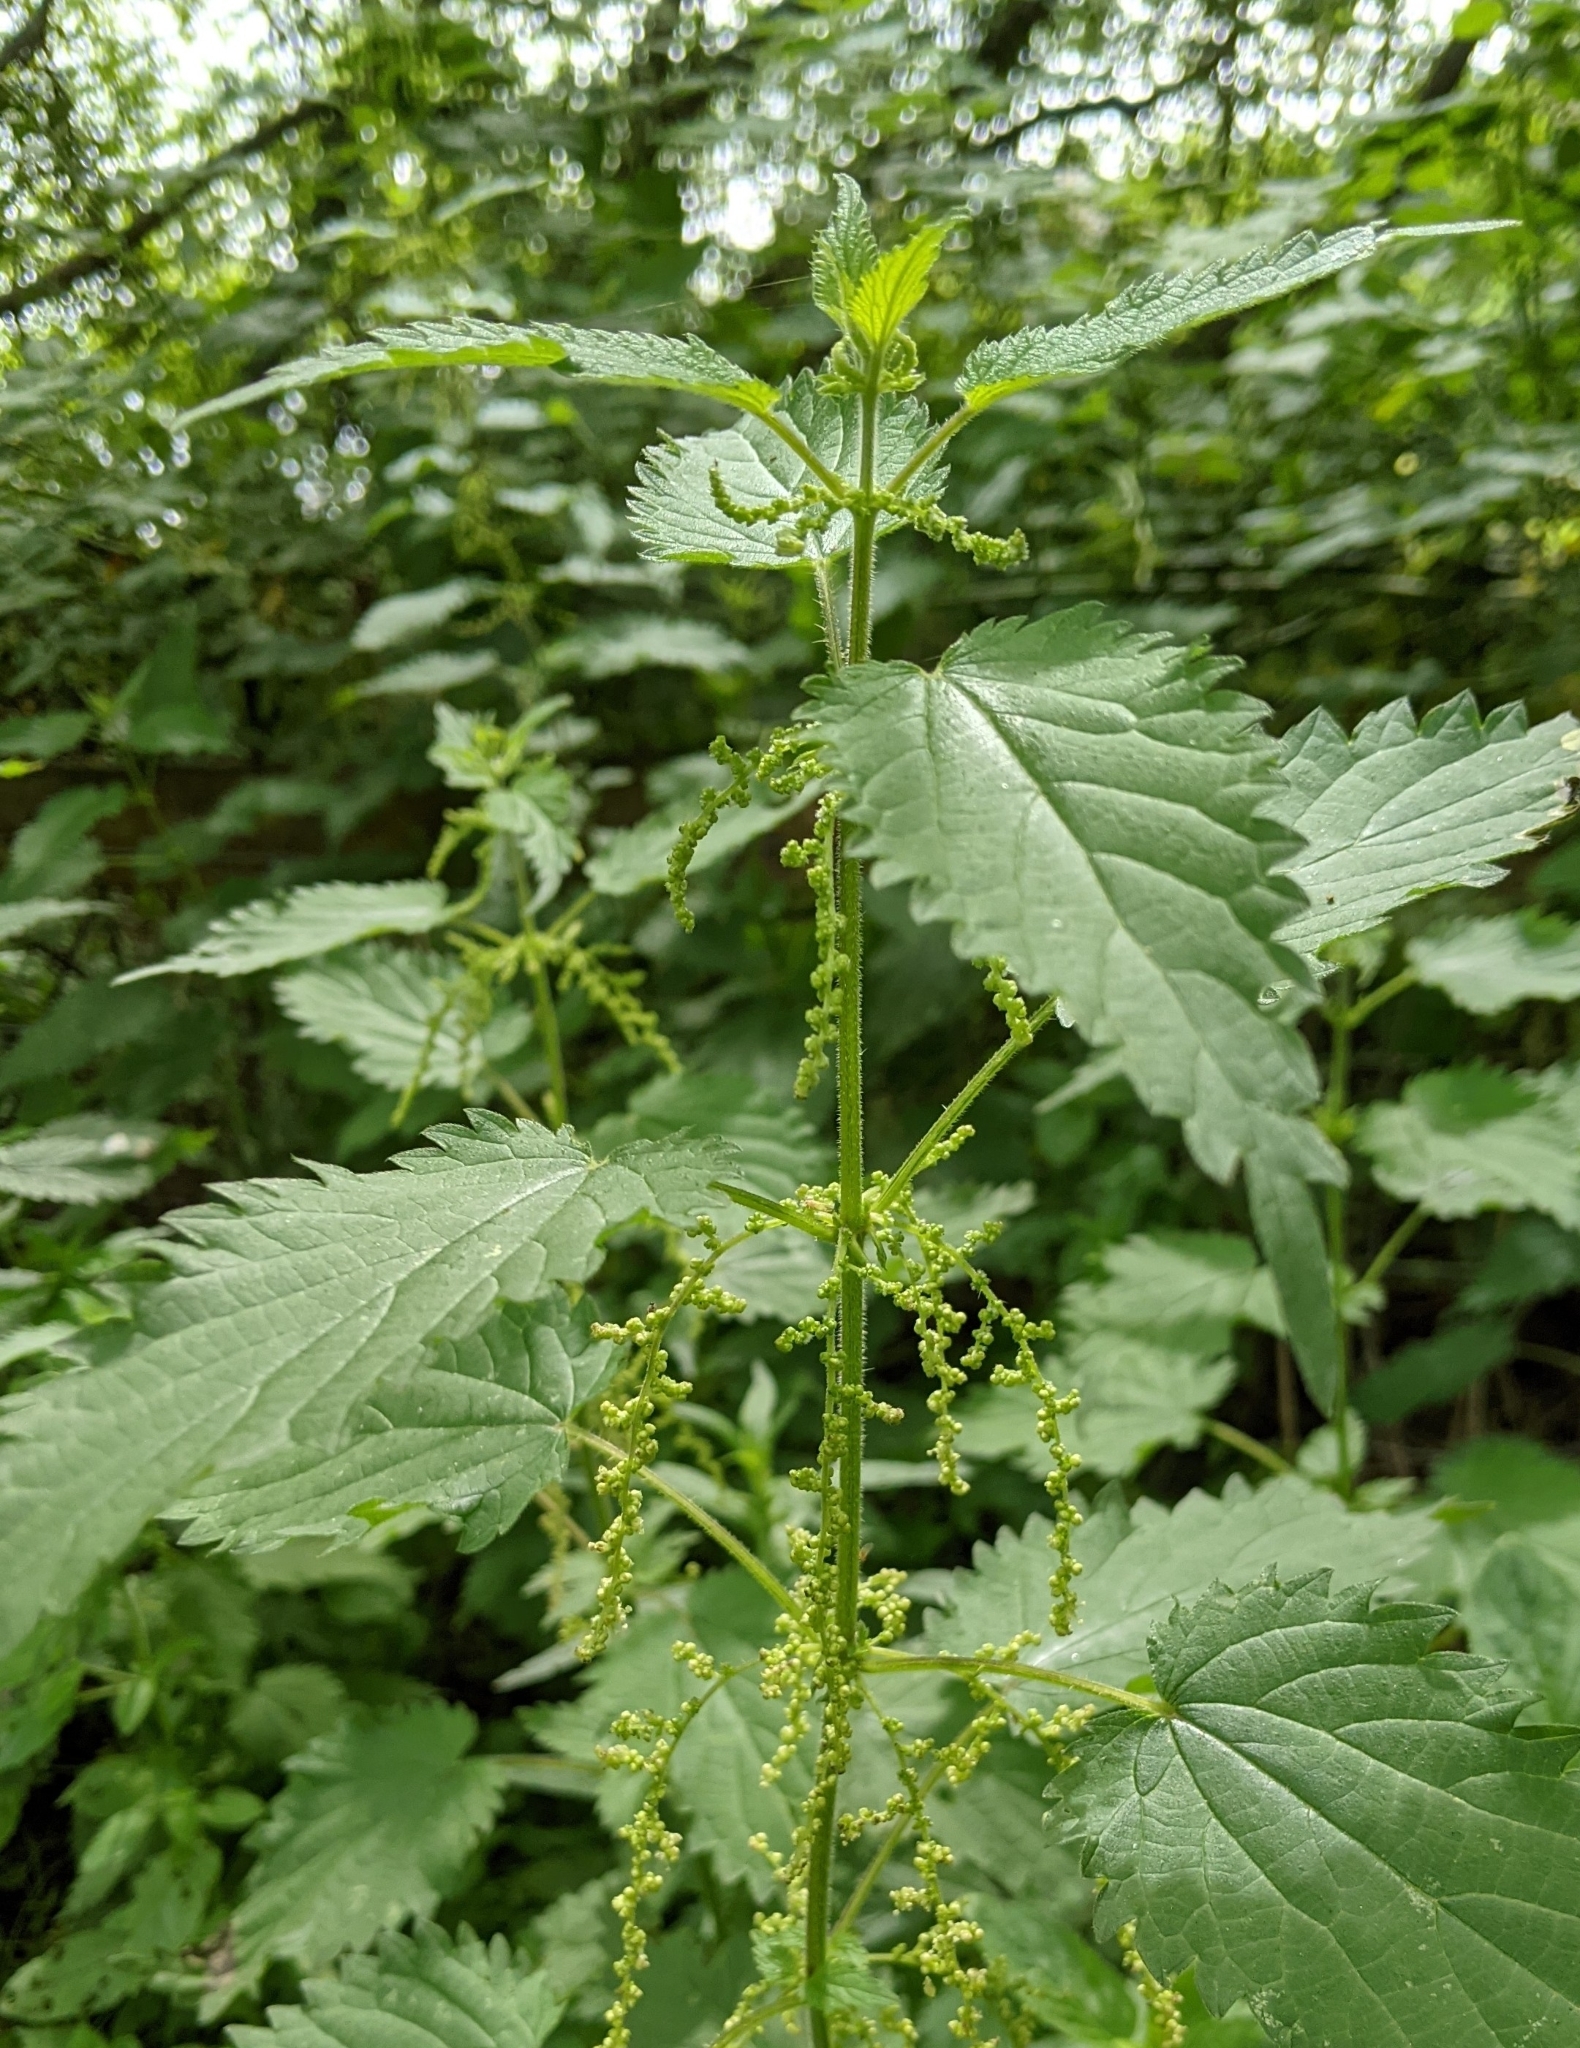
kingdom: Plantae
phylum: Tracheophyta
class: Magnoliopsida
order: Rosales
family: Urticaceae
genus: Urtica
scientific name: Urtica dioica
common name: Common nettle
